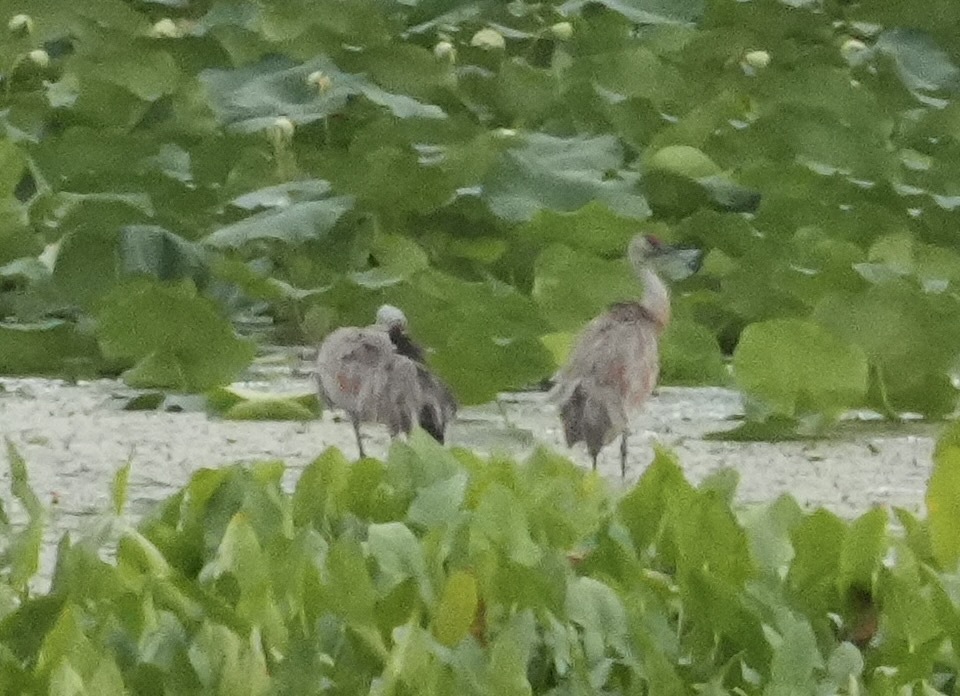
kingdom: Animalia
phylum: Chordata
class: Aves
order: Gruiformes
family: Gruidae
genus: Grus
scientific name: Grus canadensis
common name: Sandhill crane
